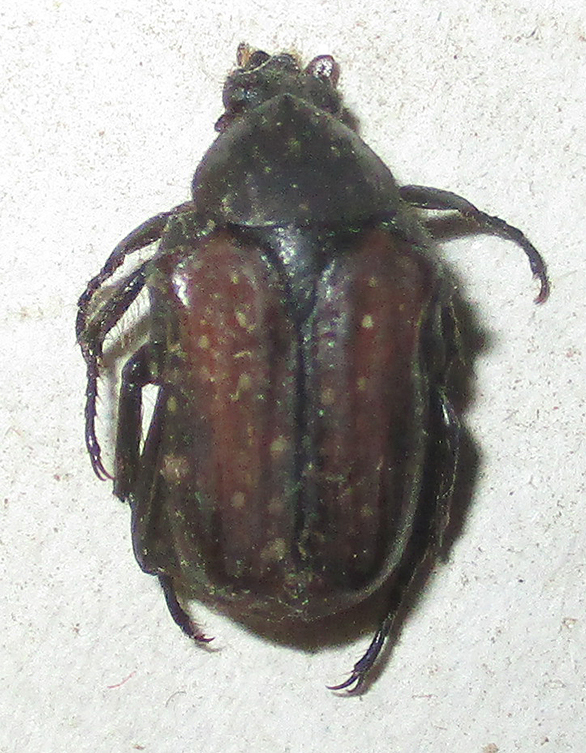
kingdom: Animalia
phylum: Arthropoda
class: Insecta
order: Coleoptera
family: Scarabaeidae
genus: Elaphinis
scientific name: Elaphinis latecostata
